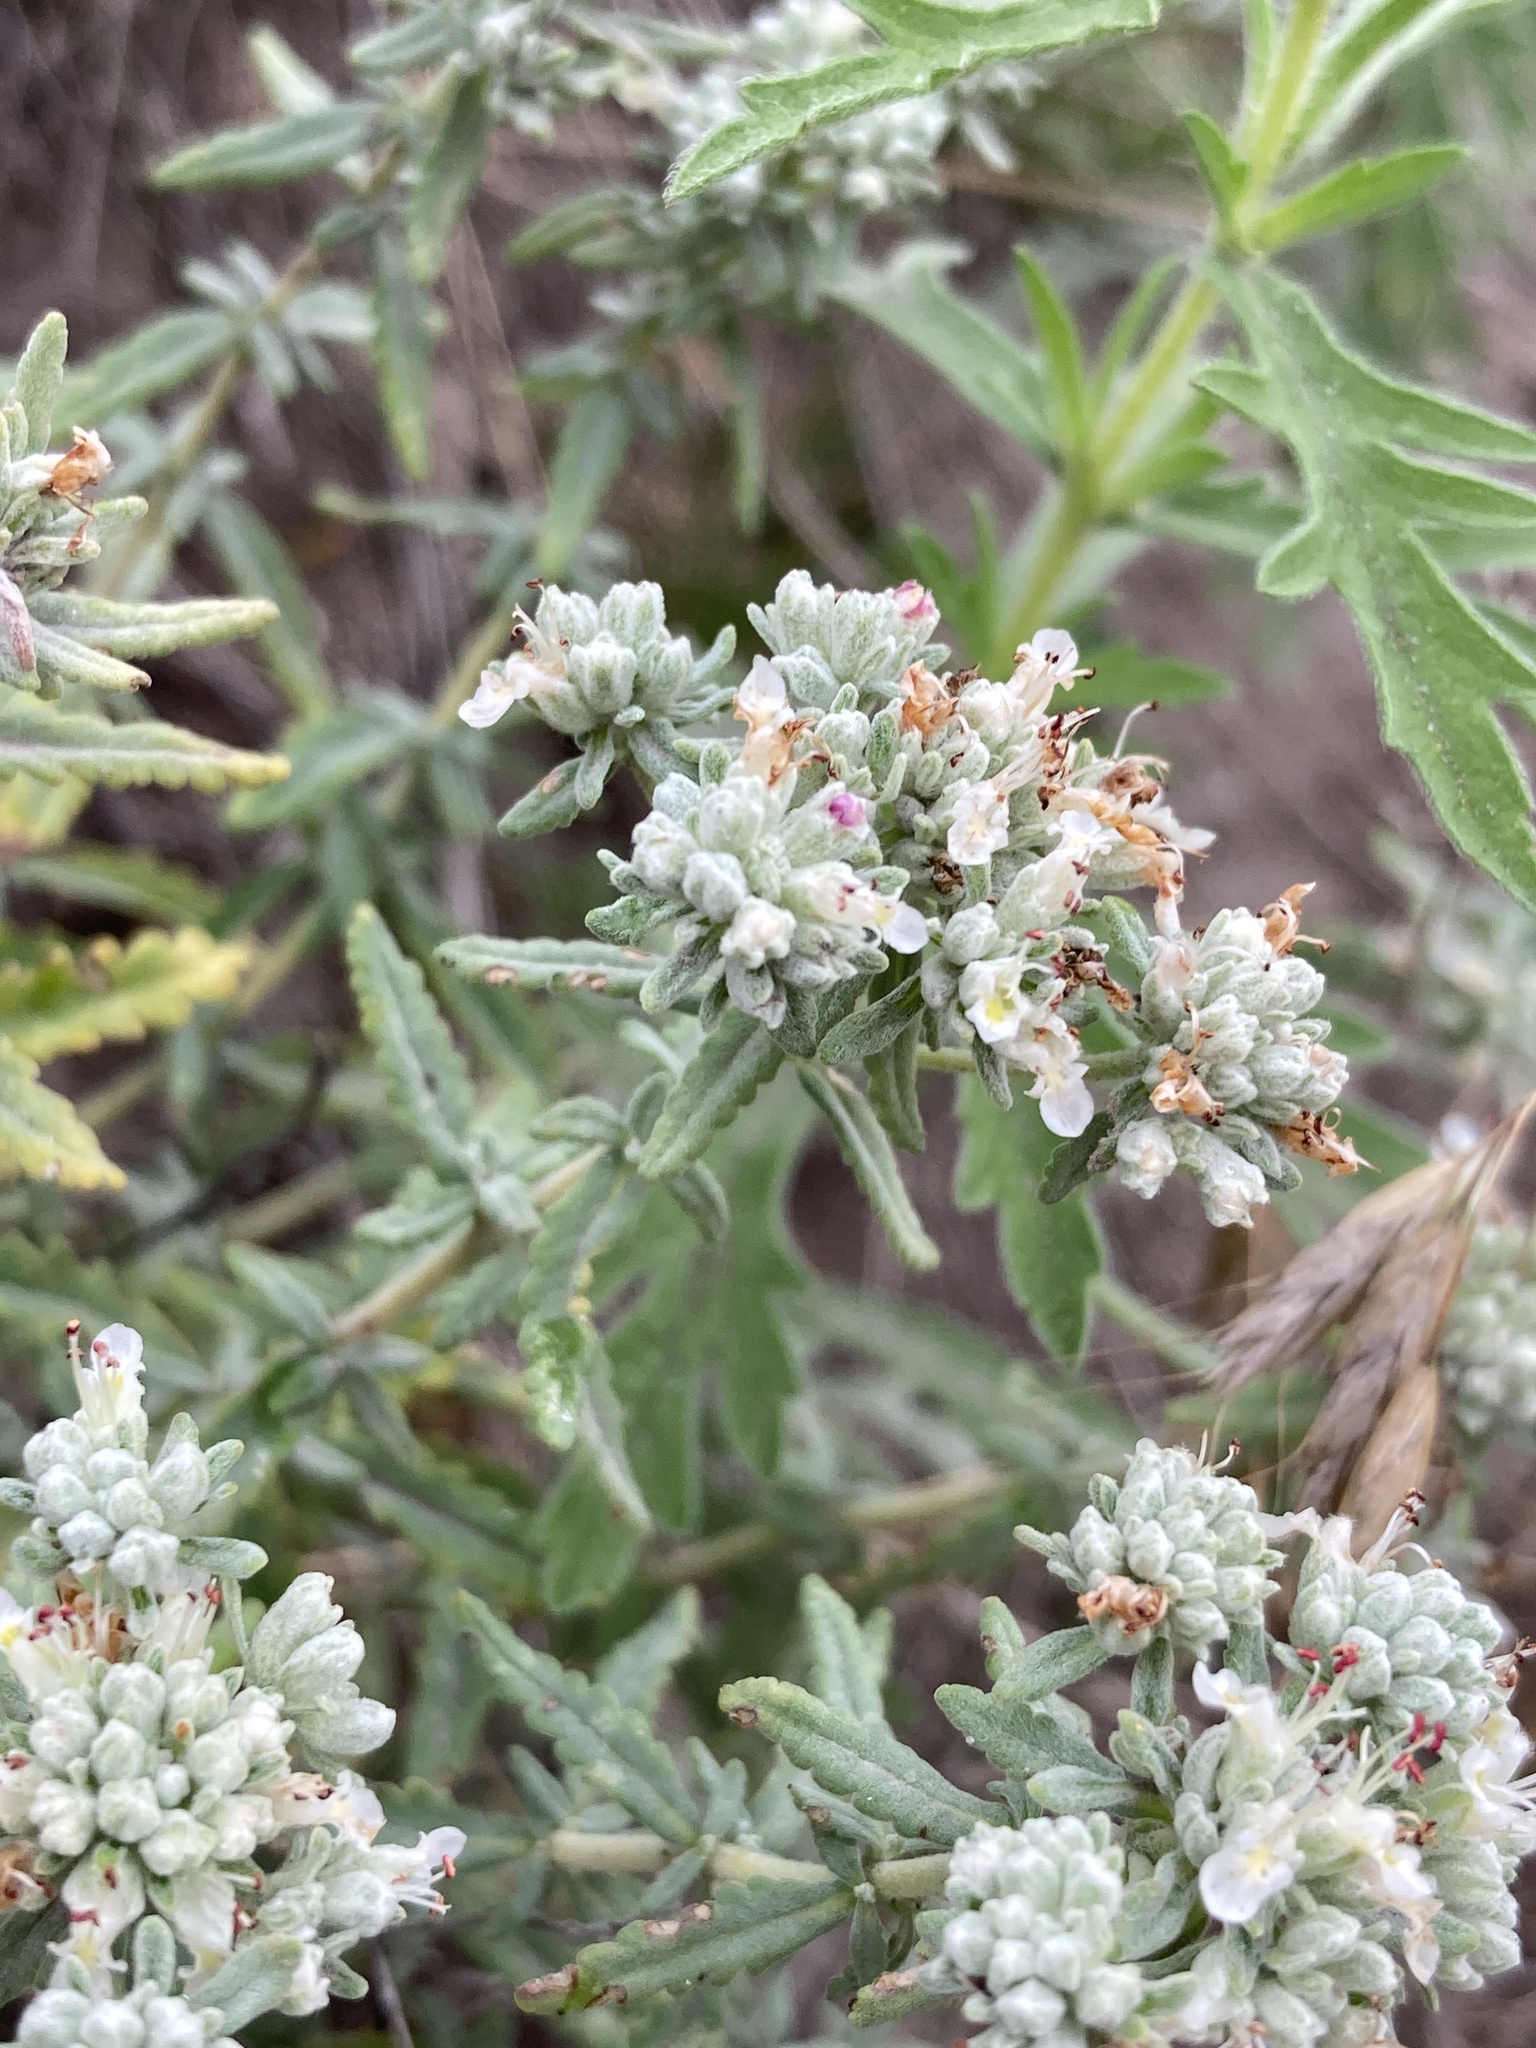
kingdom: Plantae
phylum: Tracheophyta
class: Magnoliopsida
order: Lamiales
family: Lamiaceae
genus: Teucrium
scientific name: Teucrium polium
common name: Poley
